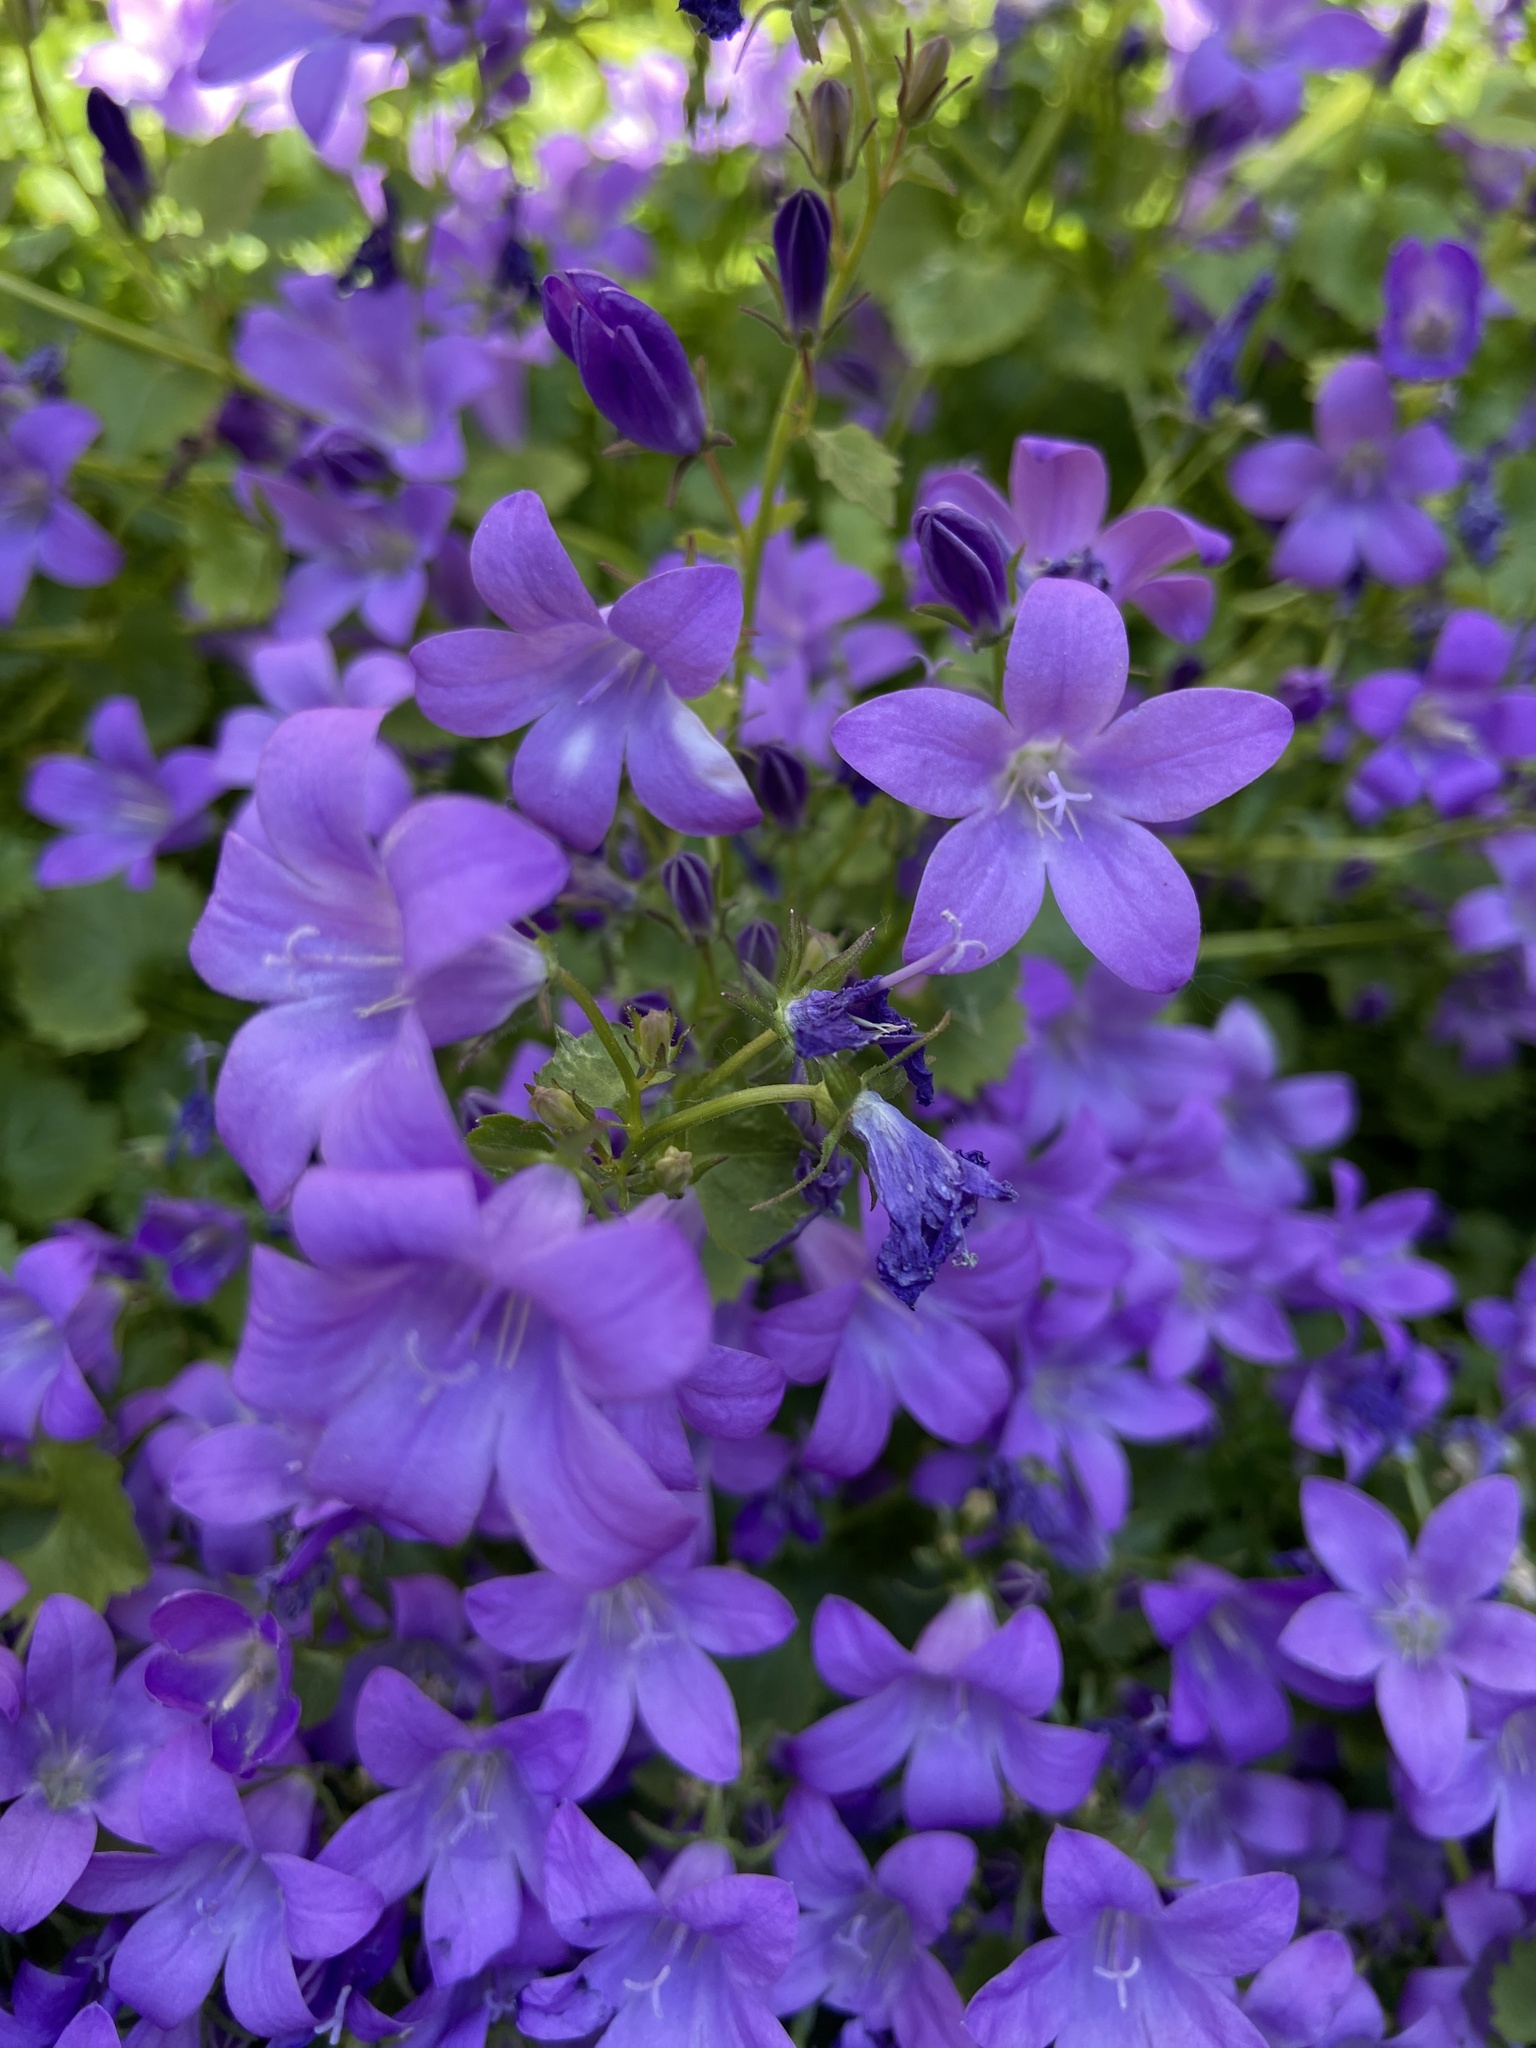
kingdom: Plantae
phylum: Tracheophyta
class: Magnoliopsida
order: Asterales
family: Campanulaceae
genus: Campanula
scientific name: Campanula portenschlagiana
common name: Adria bellflower
